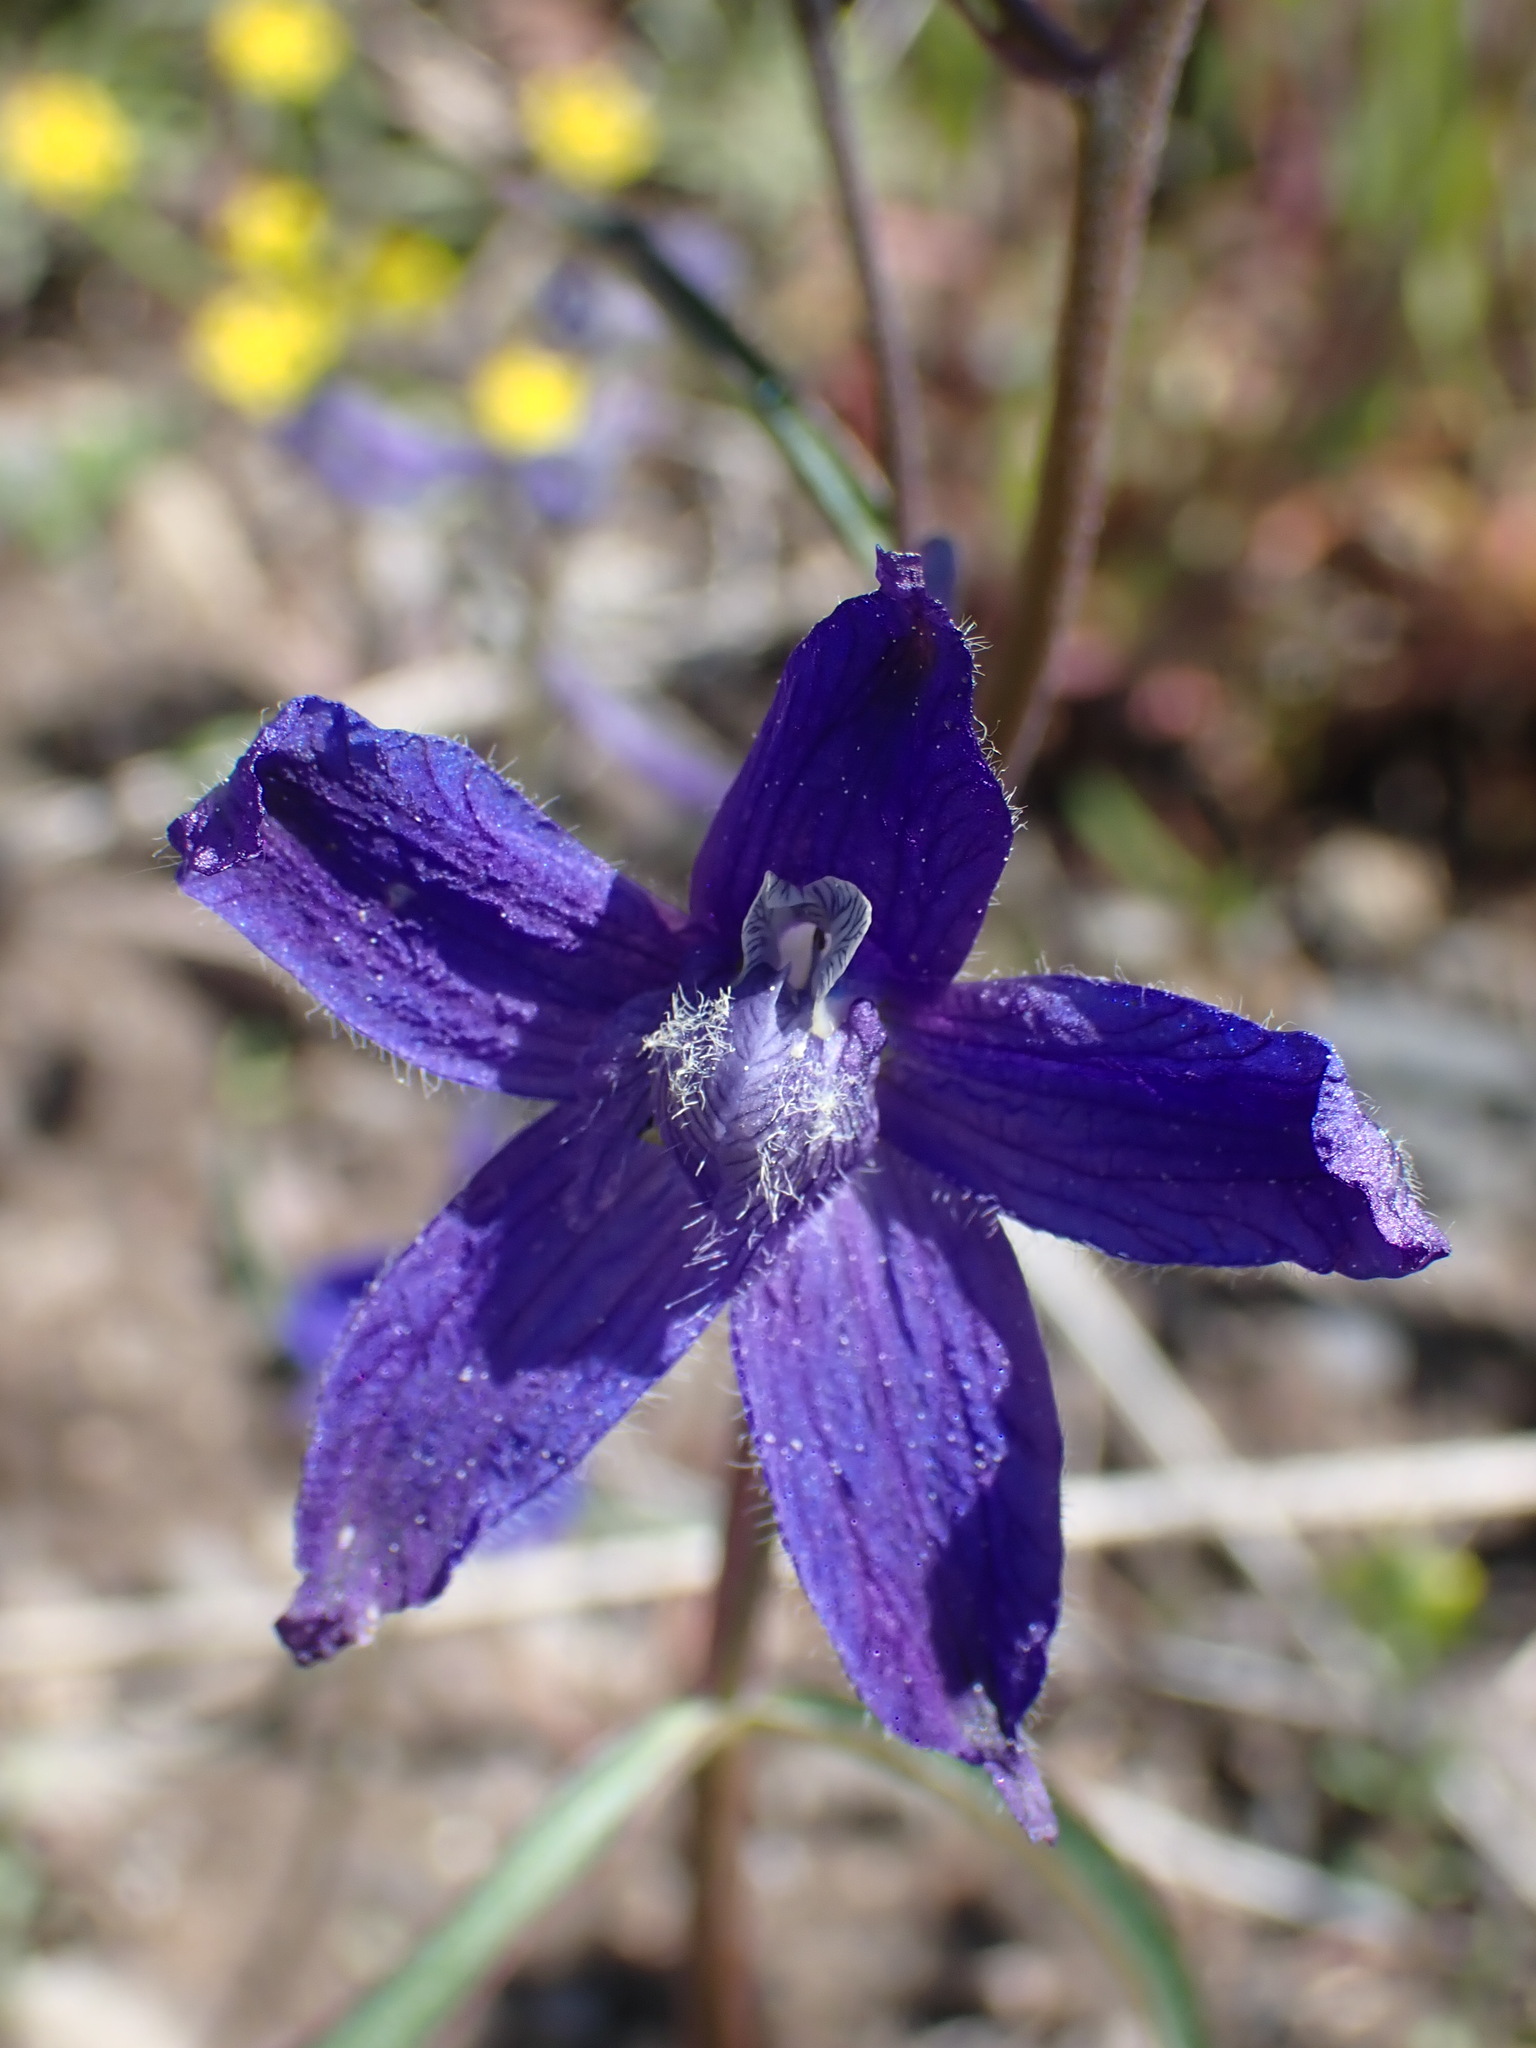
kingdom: Plantae
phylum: Tracheophyta
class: Magnoliopsida
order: Ranunculales
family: Ranunculaceae
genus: Delphinium
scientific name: Delphinium nuttallianum
